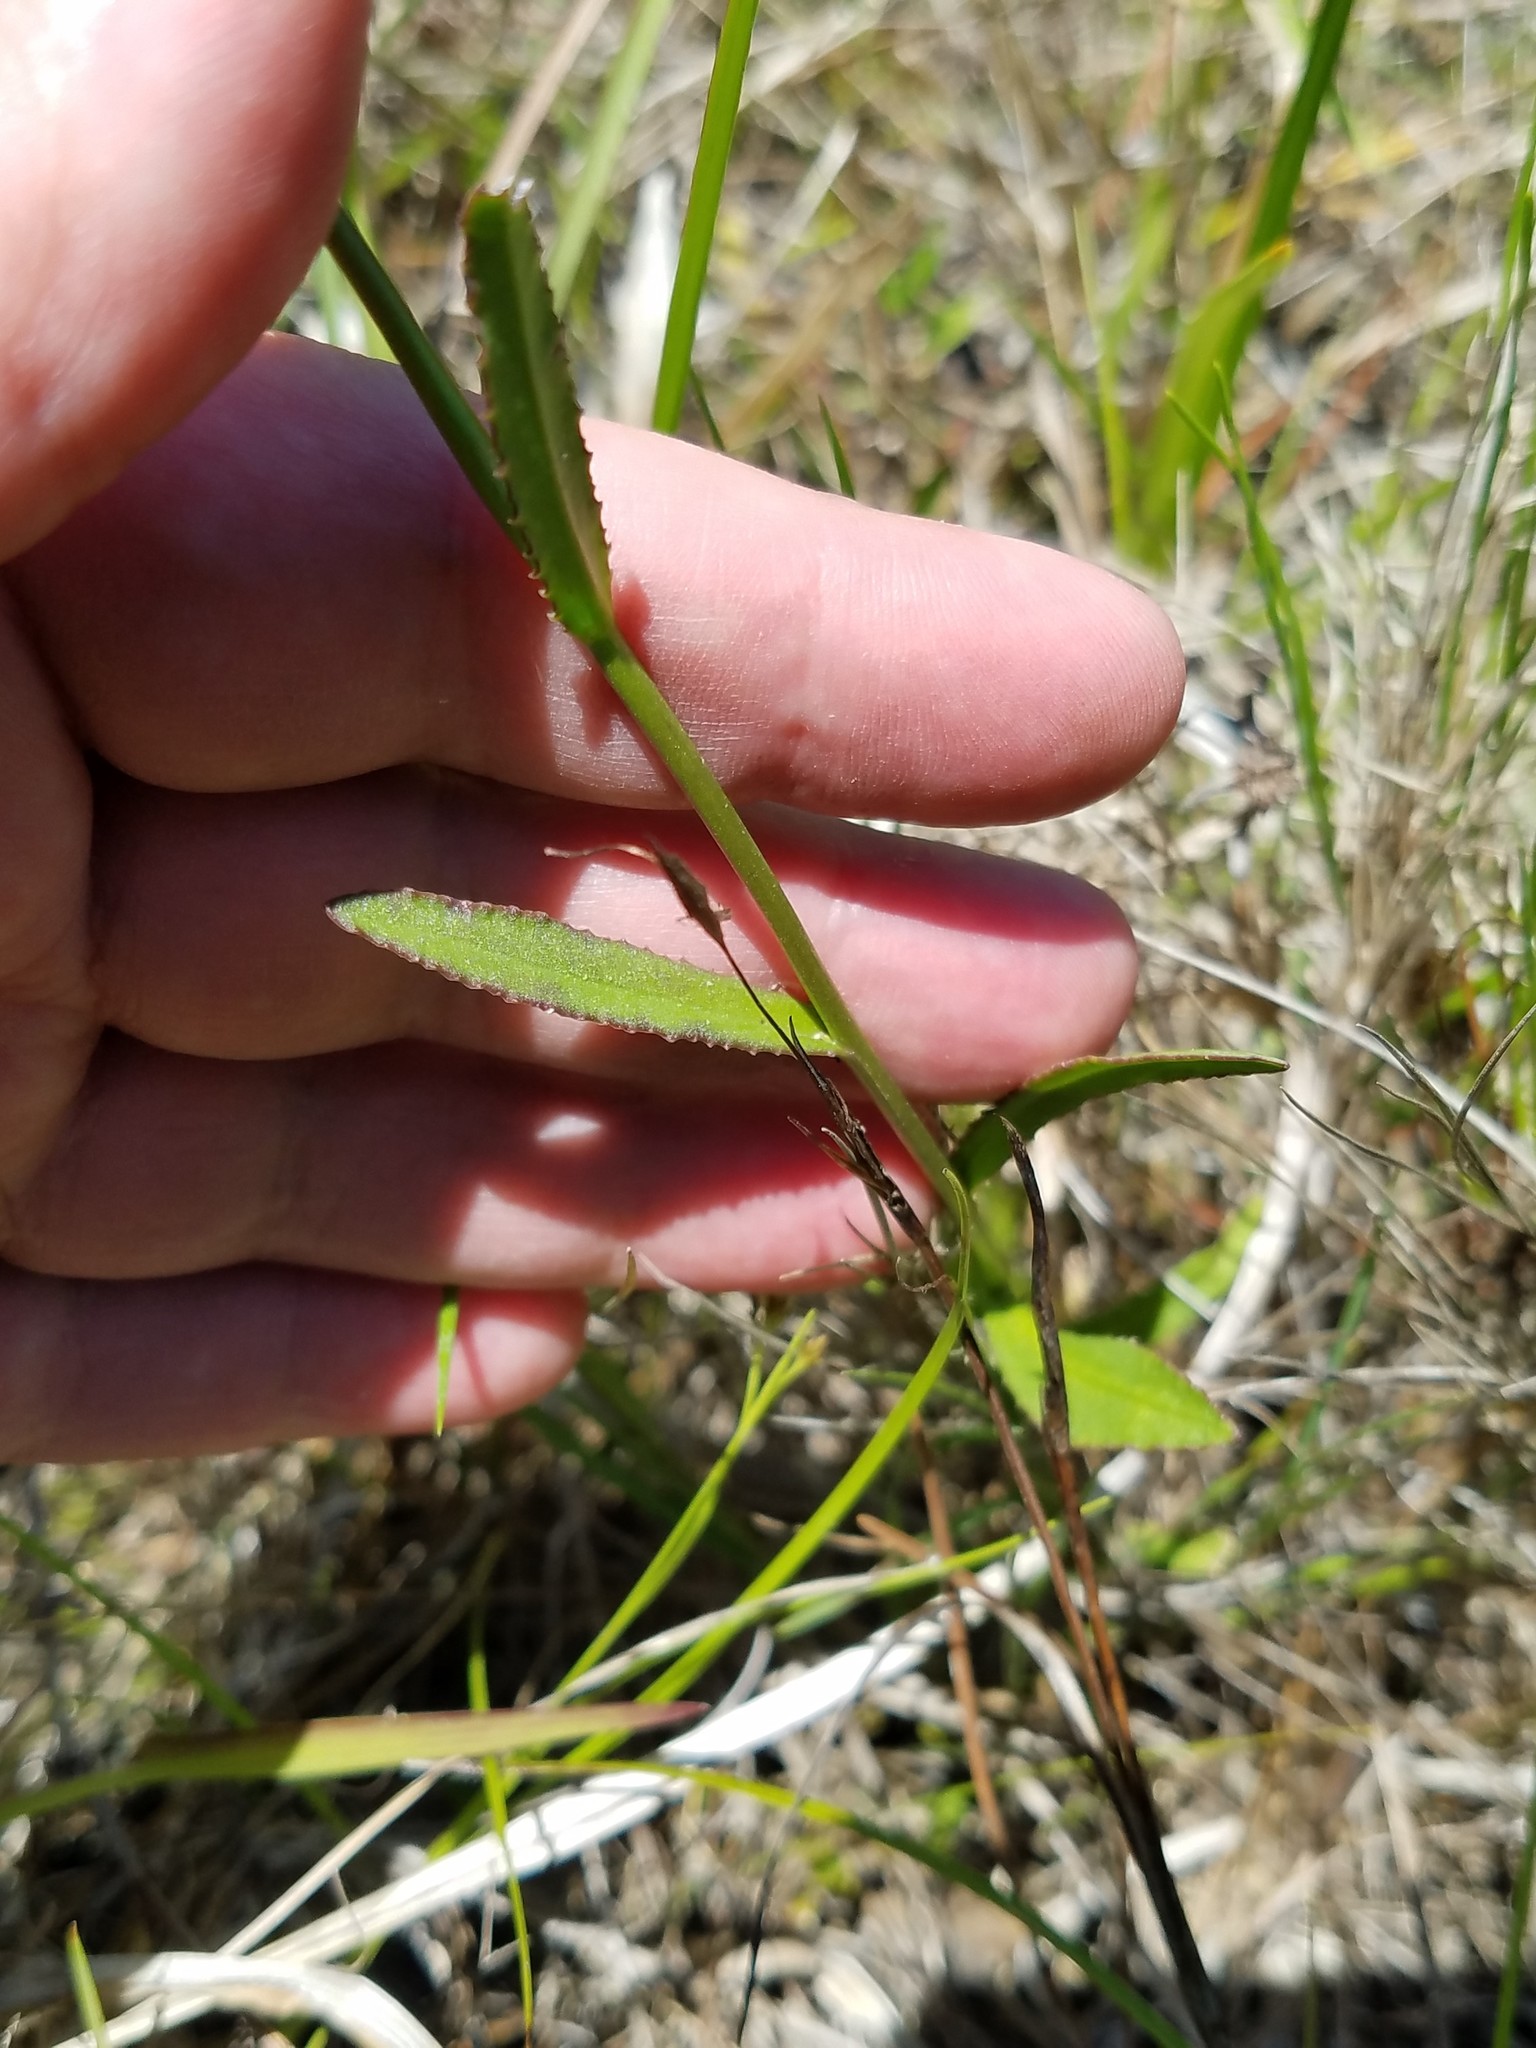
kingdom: Plantae
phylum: Tracheophyta
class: Magnoliopsida
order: Asterales
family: Campanulaceae
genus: Lobelia
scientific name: Lobelia glandulosa
